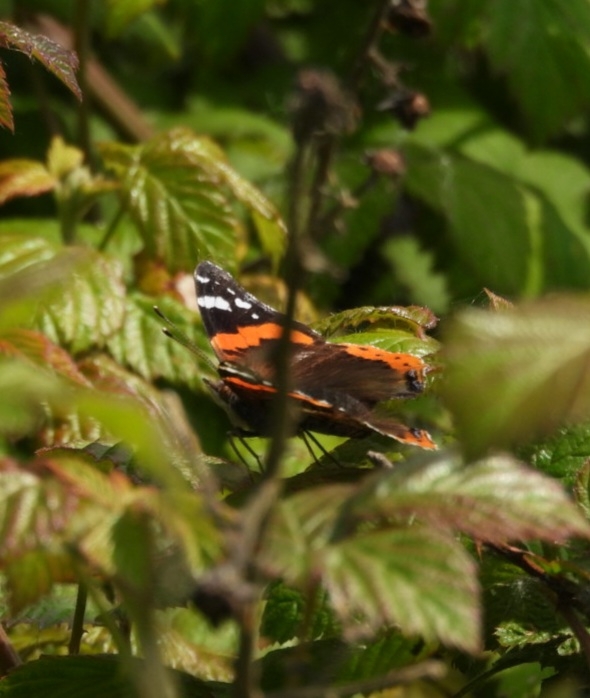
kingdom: Animalia
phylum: Arthropoda
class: Insecta
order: Lepidoptera
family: Nymphalidae
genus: Vanessa
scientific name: Vanessa atalanta
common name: Red admiral
